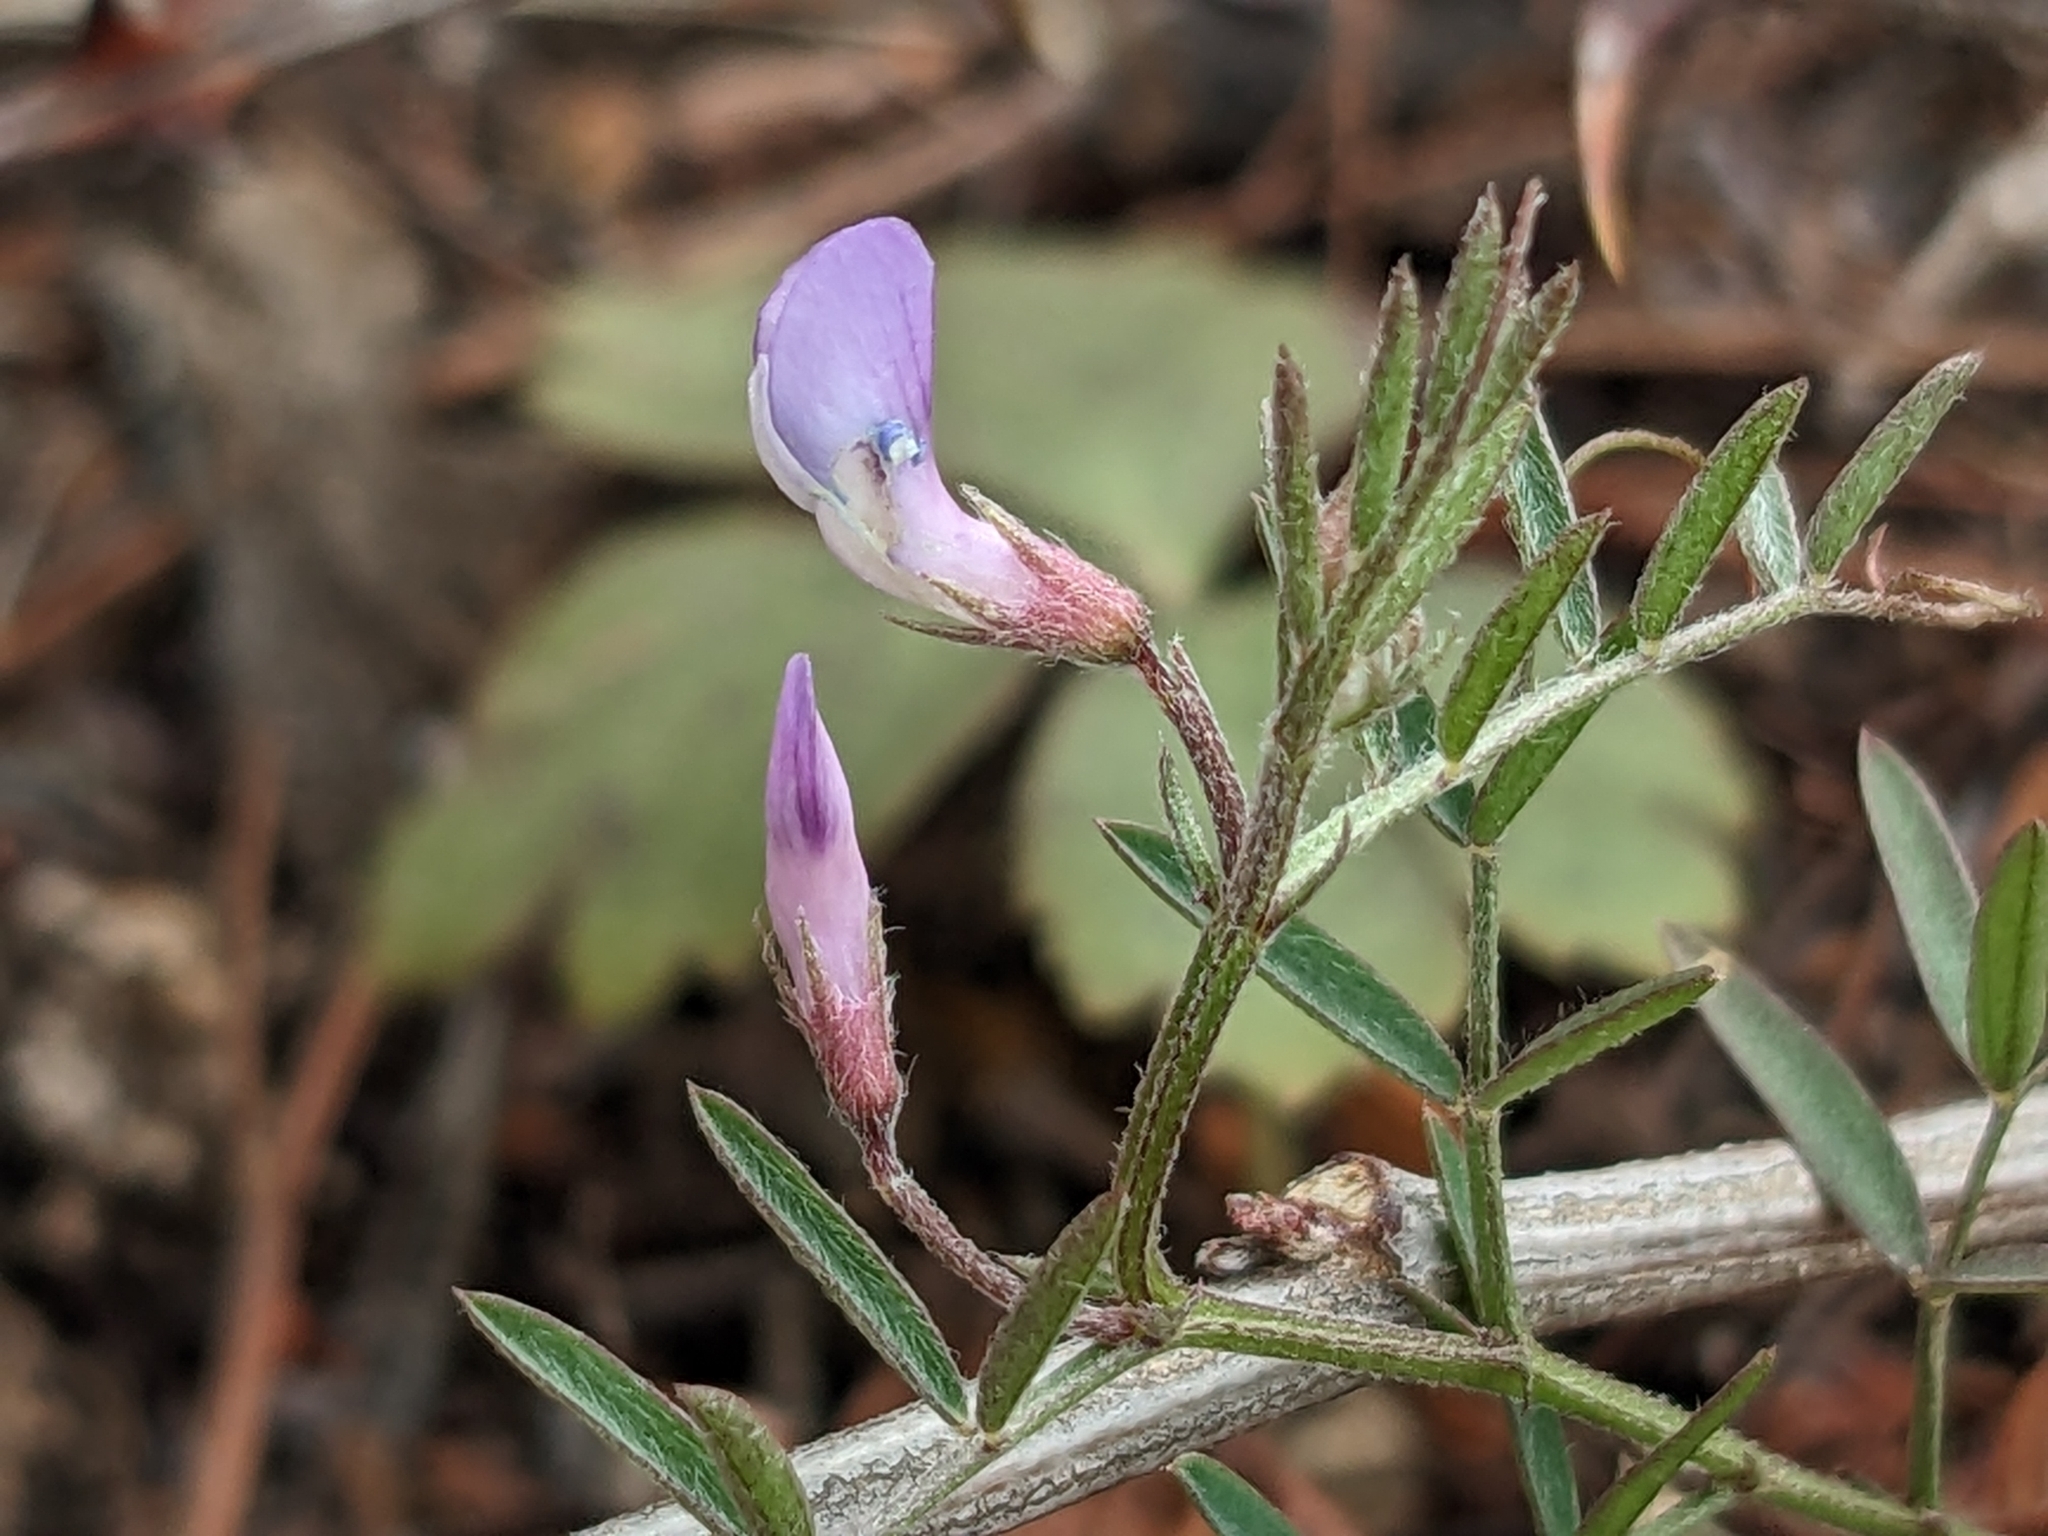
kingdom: Plantae
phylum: Tracheophyta
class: Magnoliopsida
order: Fabales
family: Fabaceae
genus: Vicia
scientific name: Vicia ludoviciana
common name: Louisiana vetch
